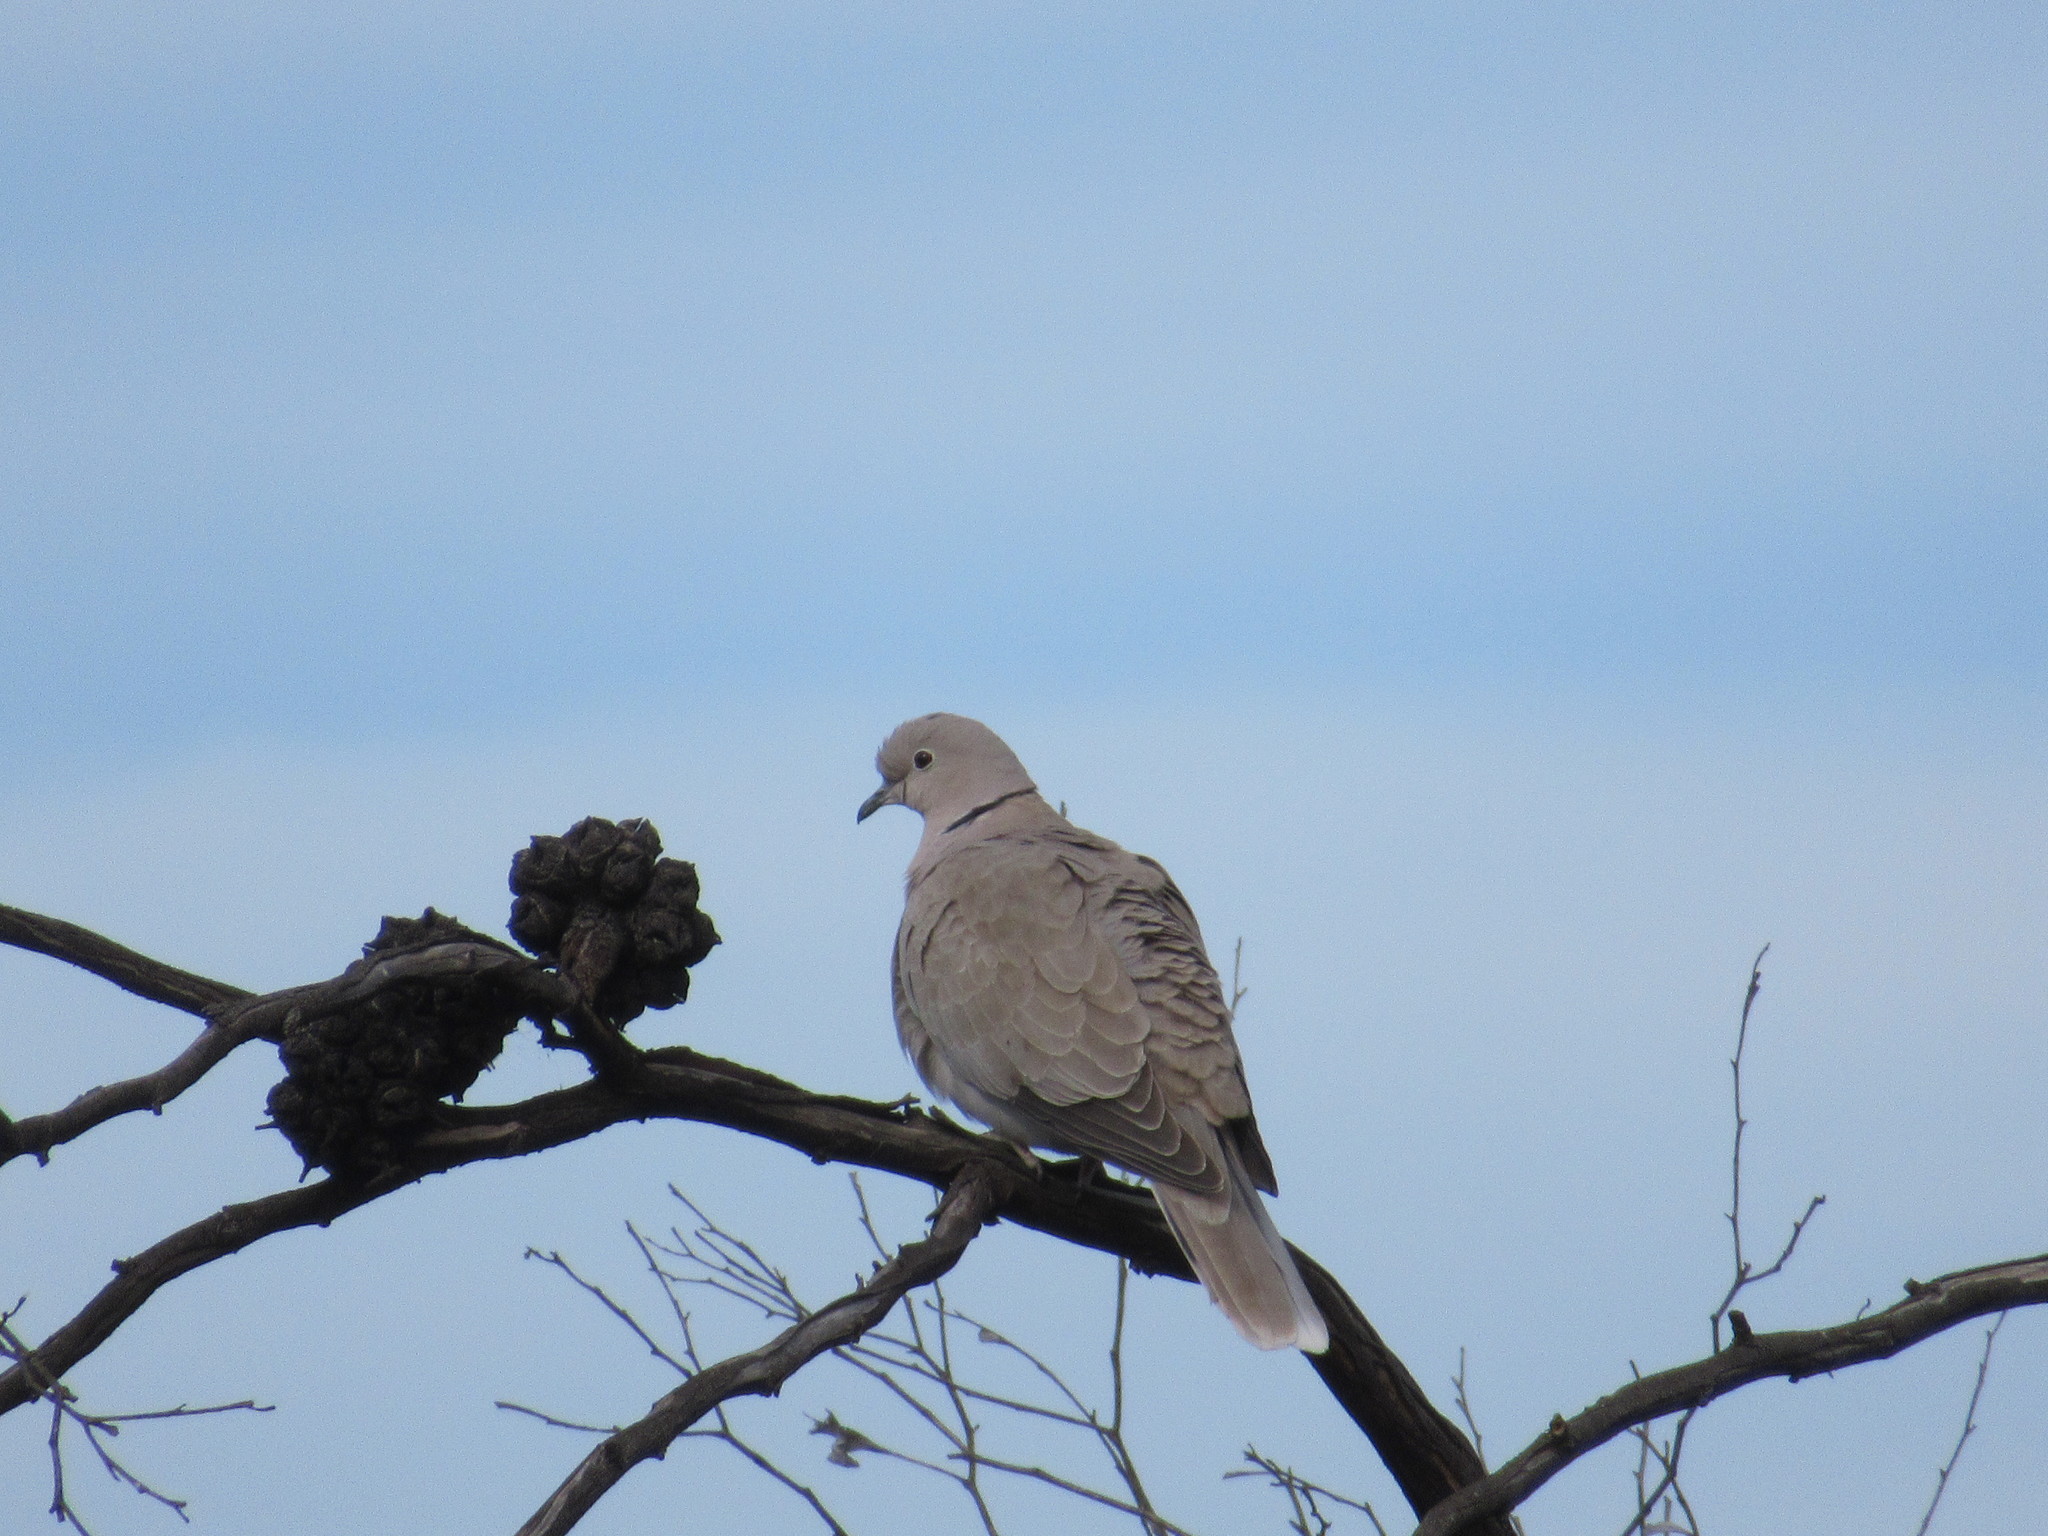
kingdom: Animalia
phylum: Chordata
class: Aves
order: Columbiformes
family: Columbidae
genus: Streptopelia
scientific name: Streptopelia decaocto
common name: Eurasian collared dove
